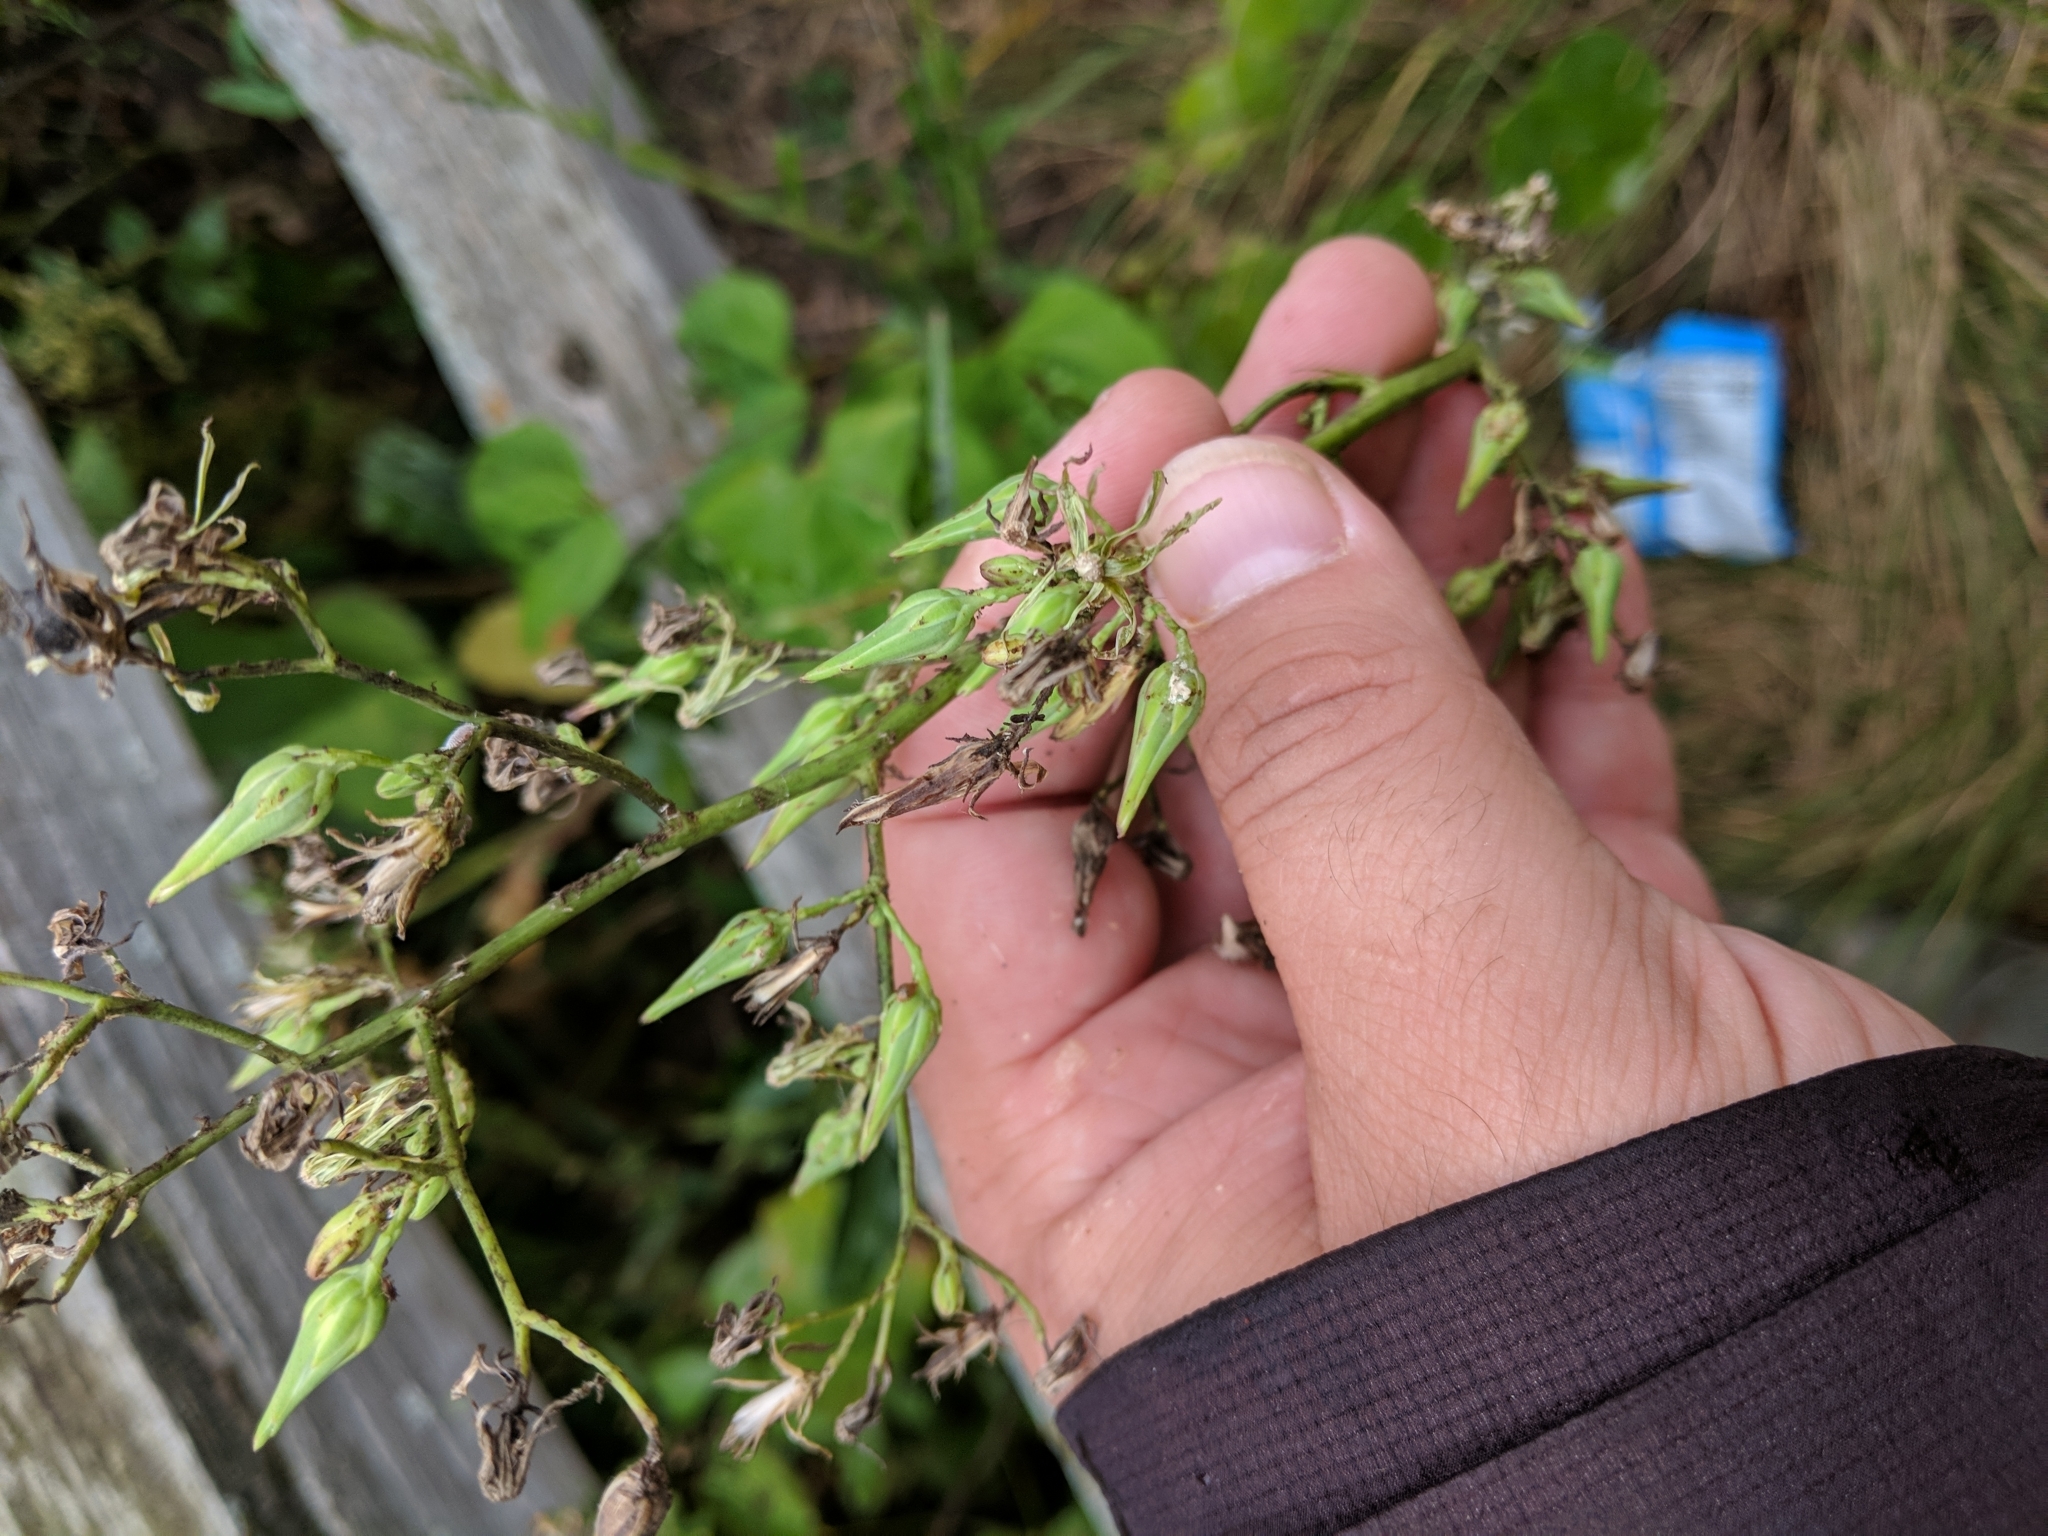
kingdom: Plantae
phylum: Tracheophyta
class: Magnoliopsida
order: Asterales
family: Asteraceae
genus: Lactuca
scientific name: Lactuca canadensis
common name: Canada lettuce
